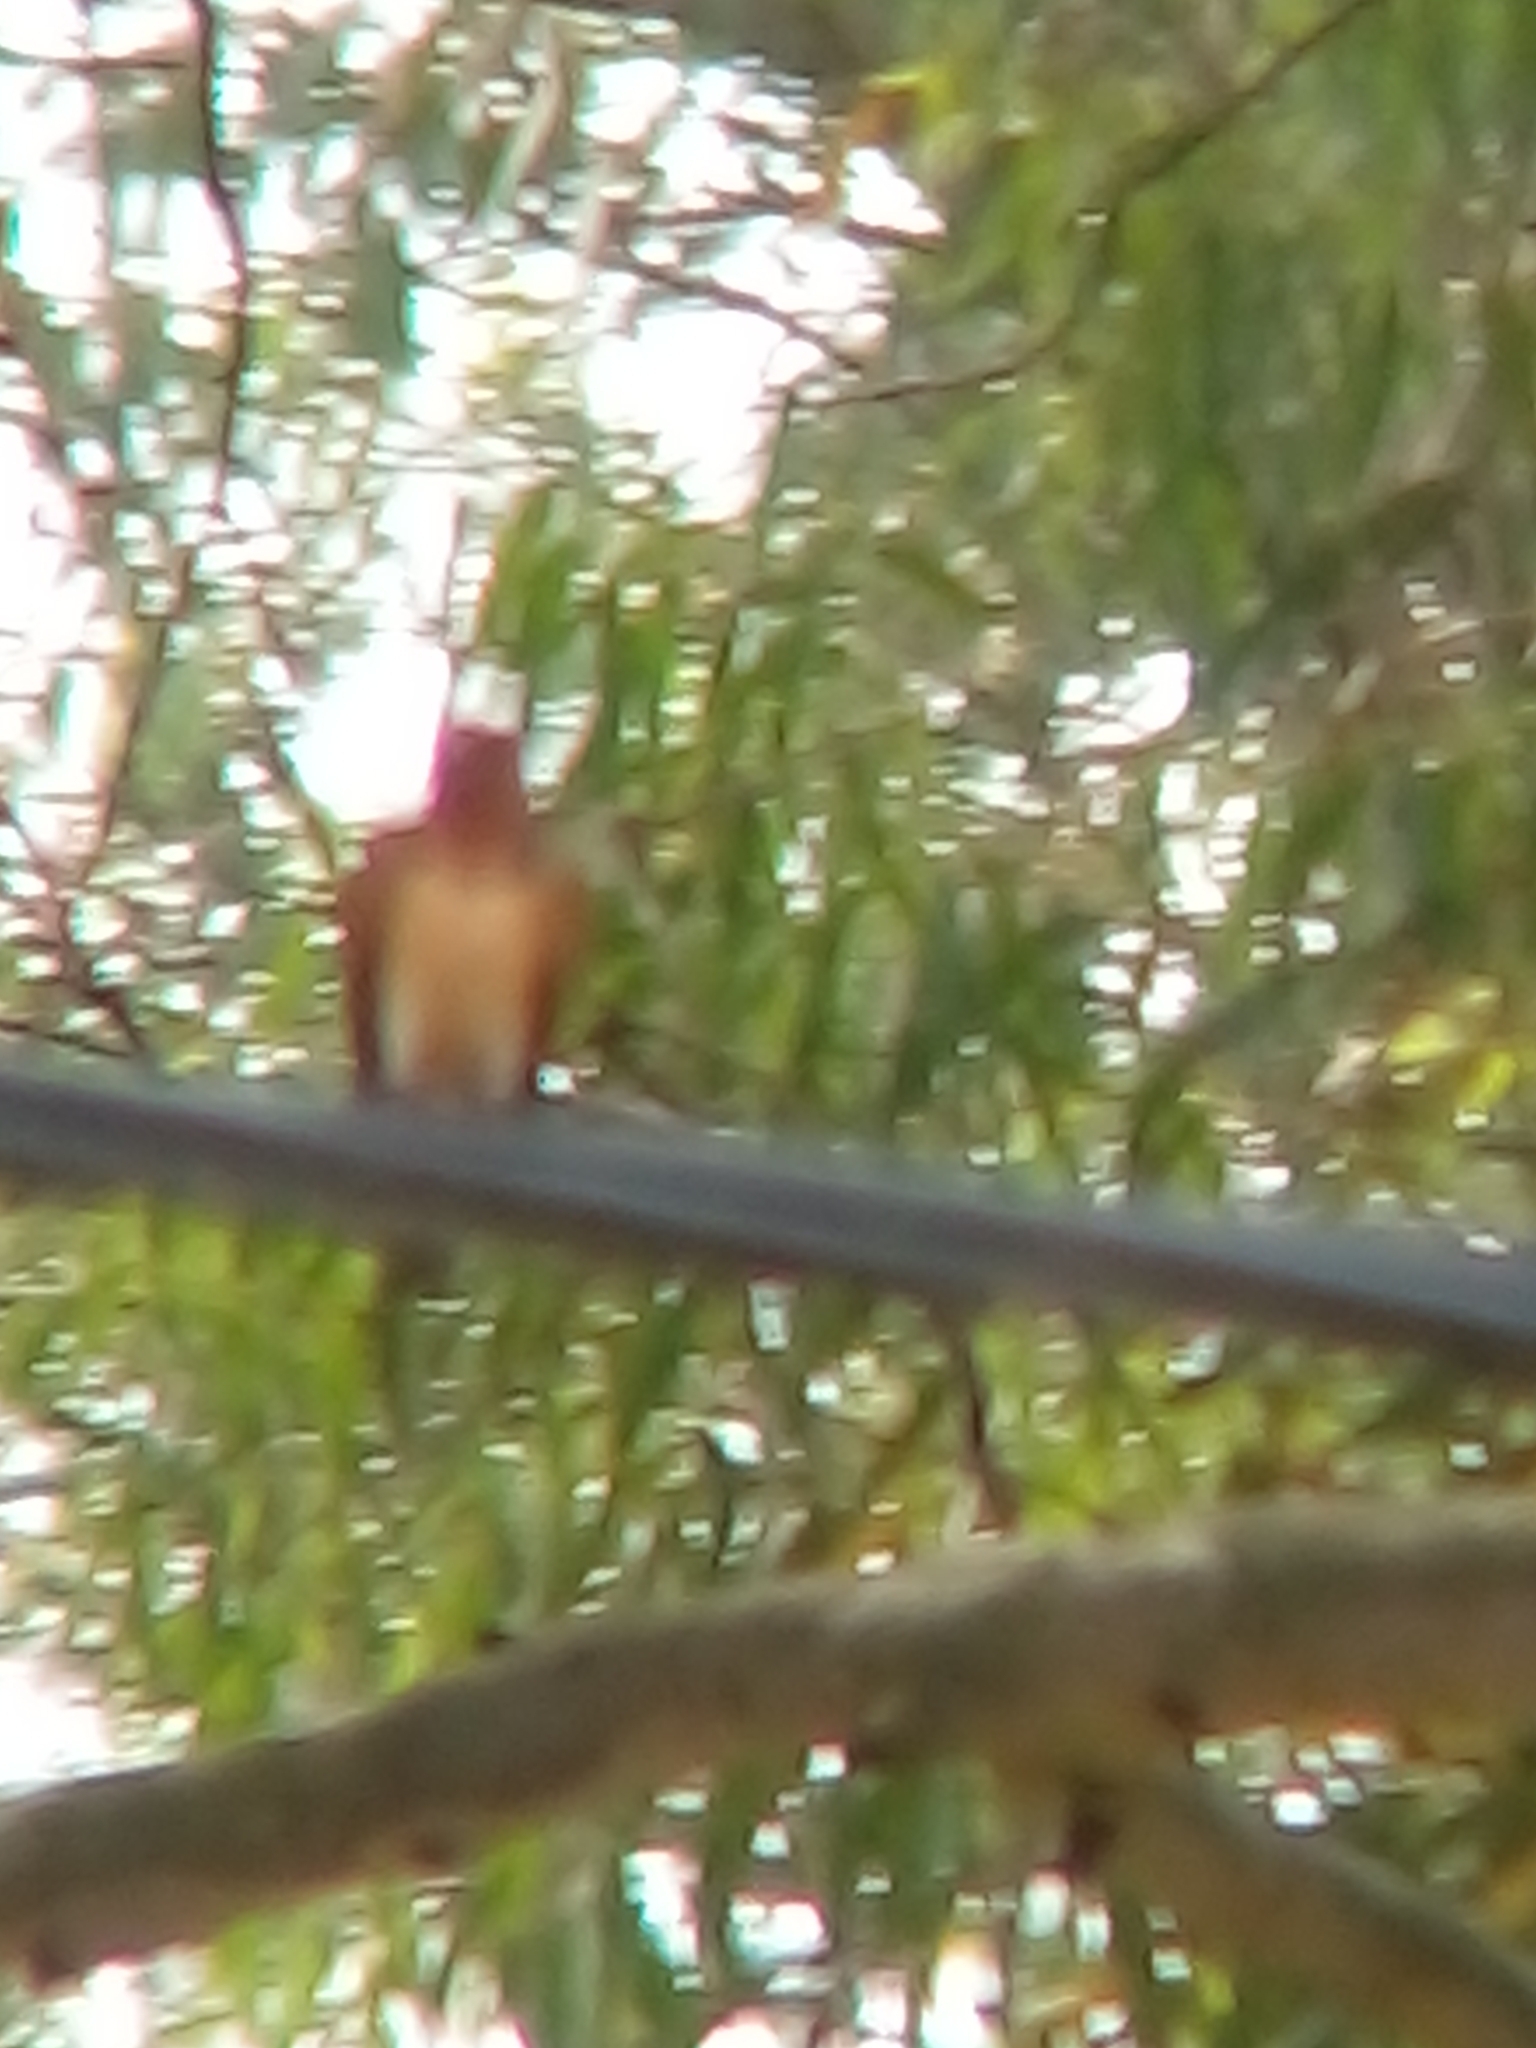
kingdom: Animalia
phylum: Chordata
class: Aves
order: Passeriformes
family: Hirundinidae
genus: Hirundo
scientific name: Hirundo rustica
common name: Barn swallow
